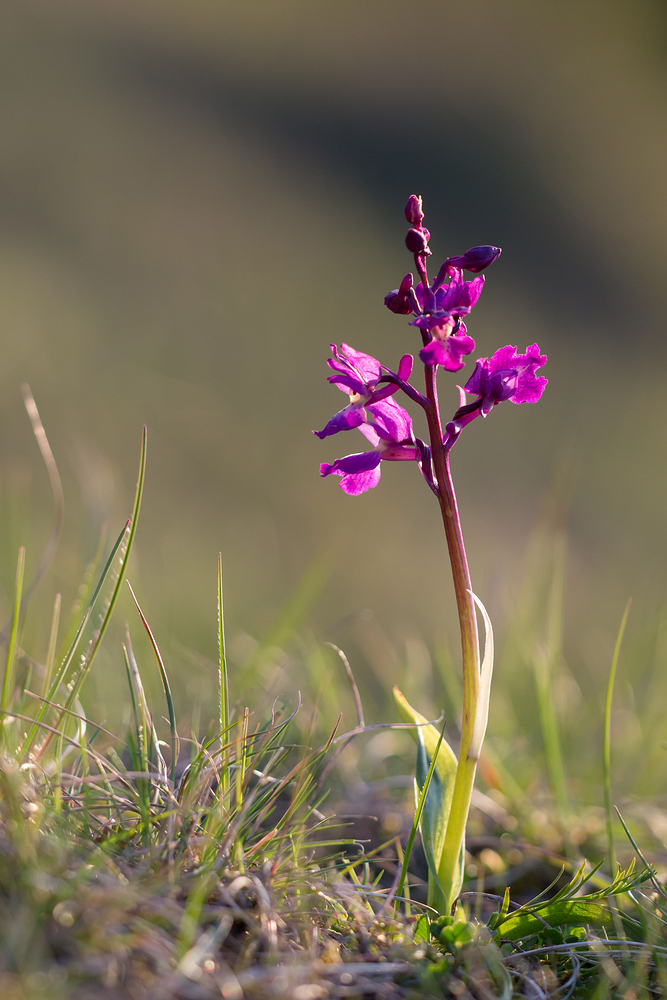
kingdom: Plantae
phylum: Tracheophyta
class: Liliopsida
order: Asparagales
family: Orchidaceae
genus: Orchis
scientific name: Orchis mascula
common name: Early-purple orchid
